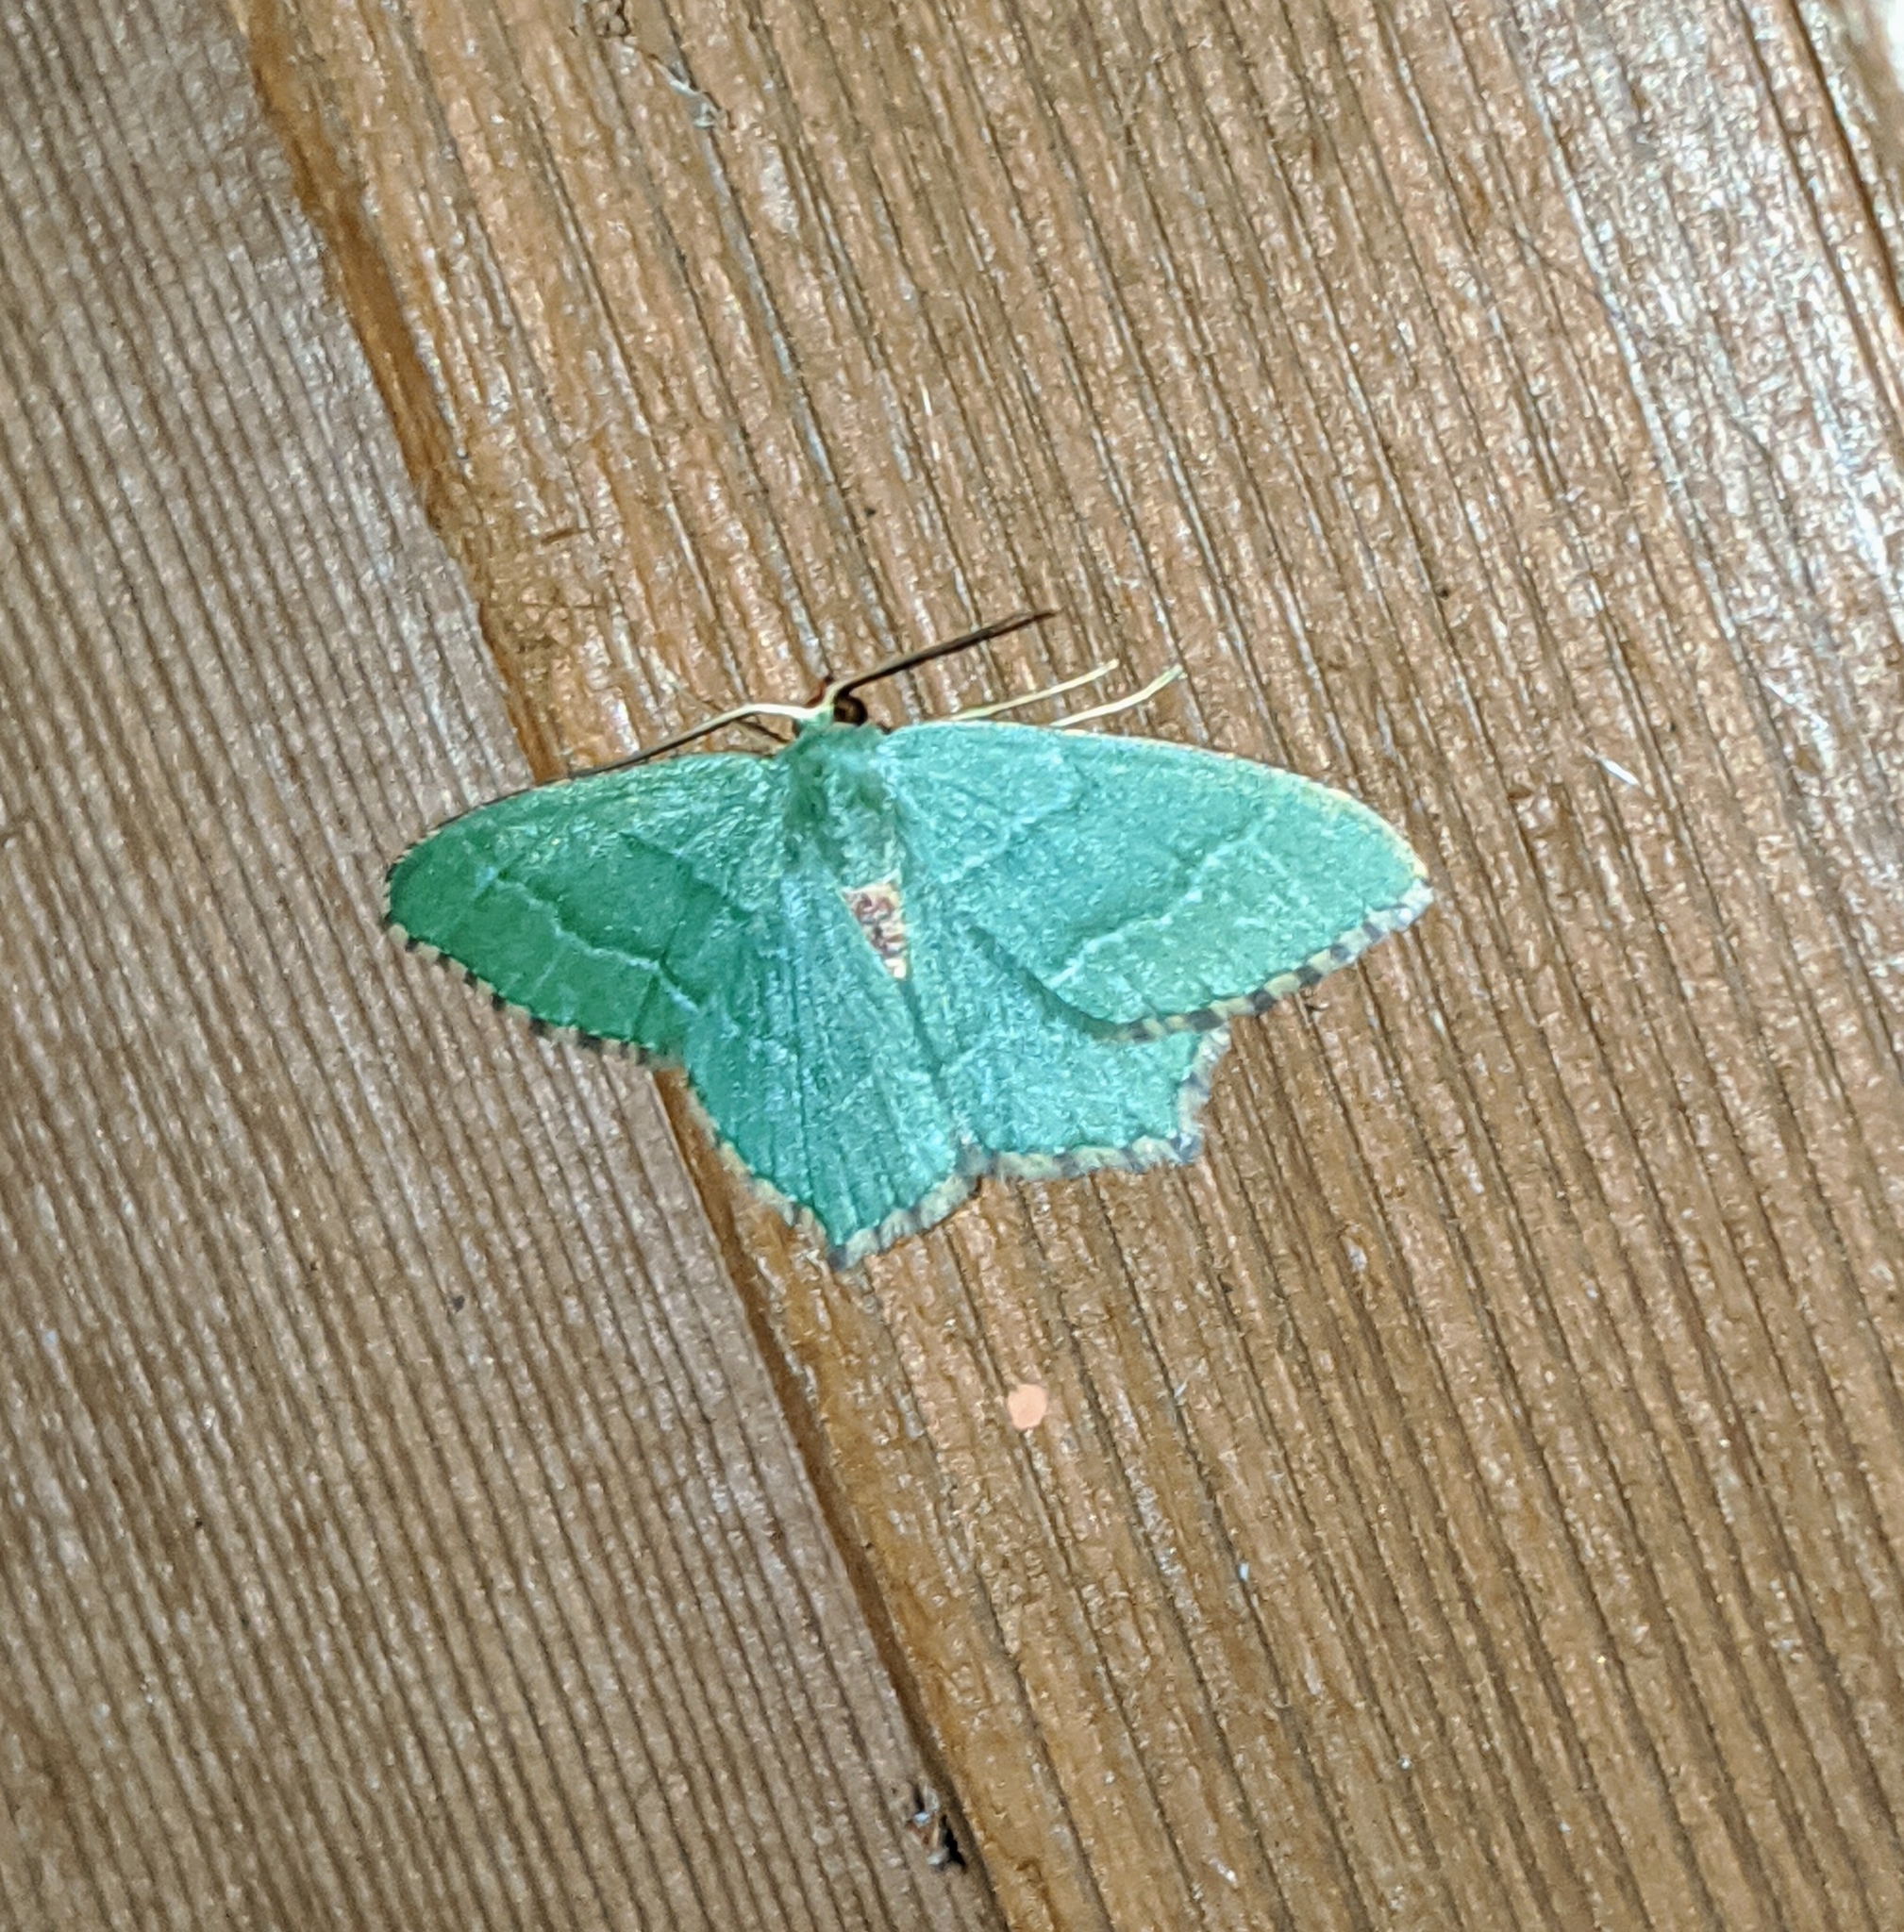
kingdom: Animalia
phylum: Arthropoda
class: Insecta
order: Lepidoptera
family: Geometridae
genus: Hemithea
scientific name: Hemithea aestivaria
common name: Common emerald
